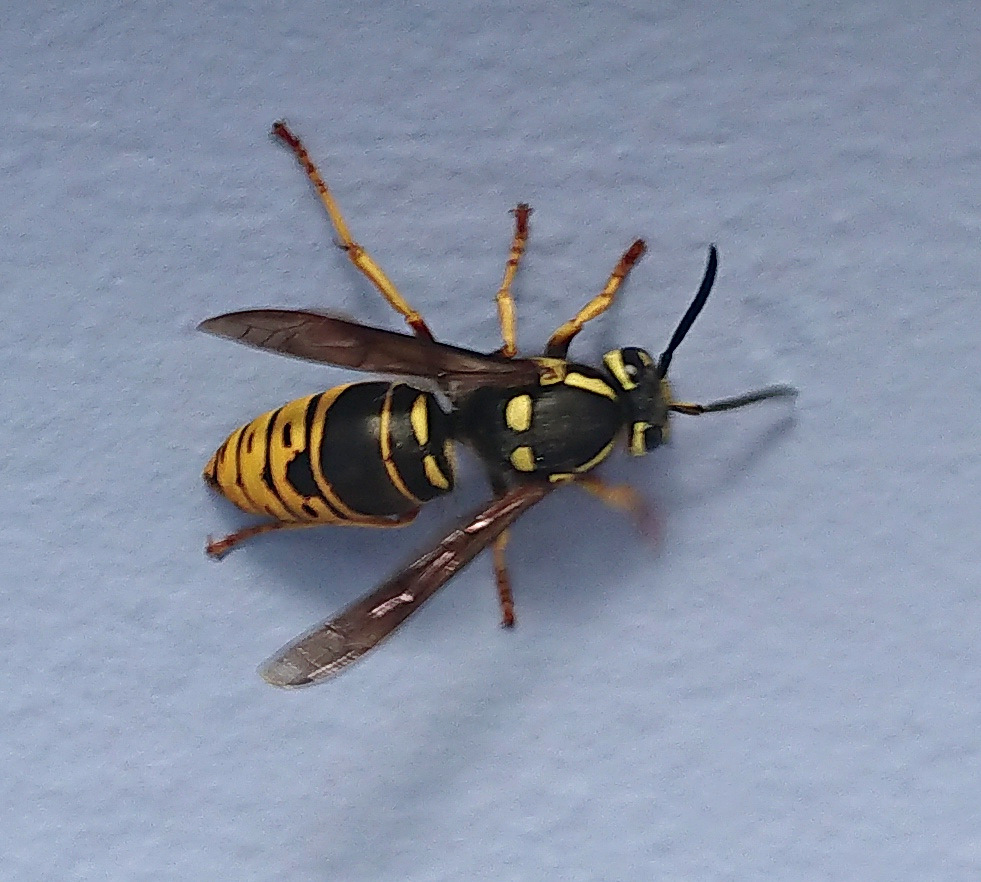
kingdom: Animalia
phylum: Arthropoda
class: Insecta
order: Hymenoptera
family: Vespidae
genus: Vespula
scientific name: Vespula vidua
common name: Widow yellowjacket
